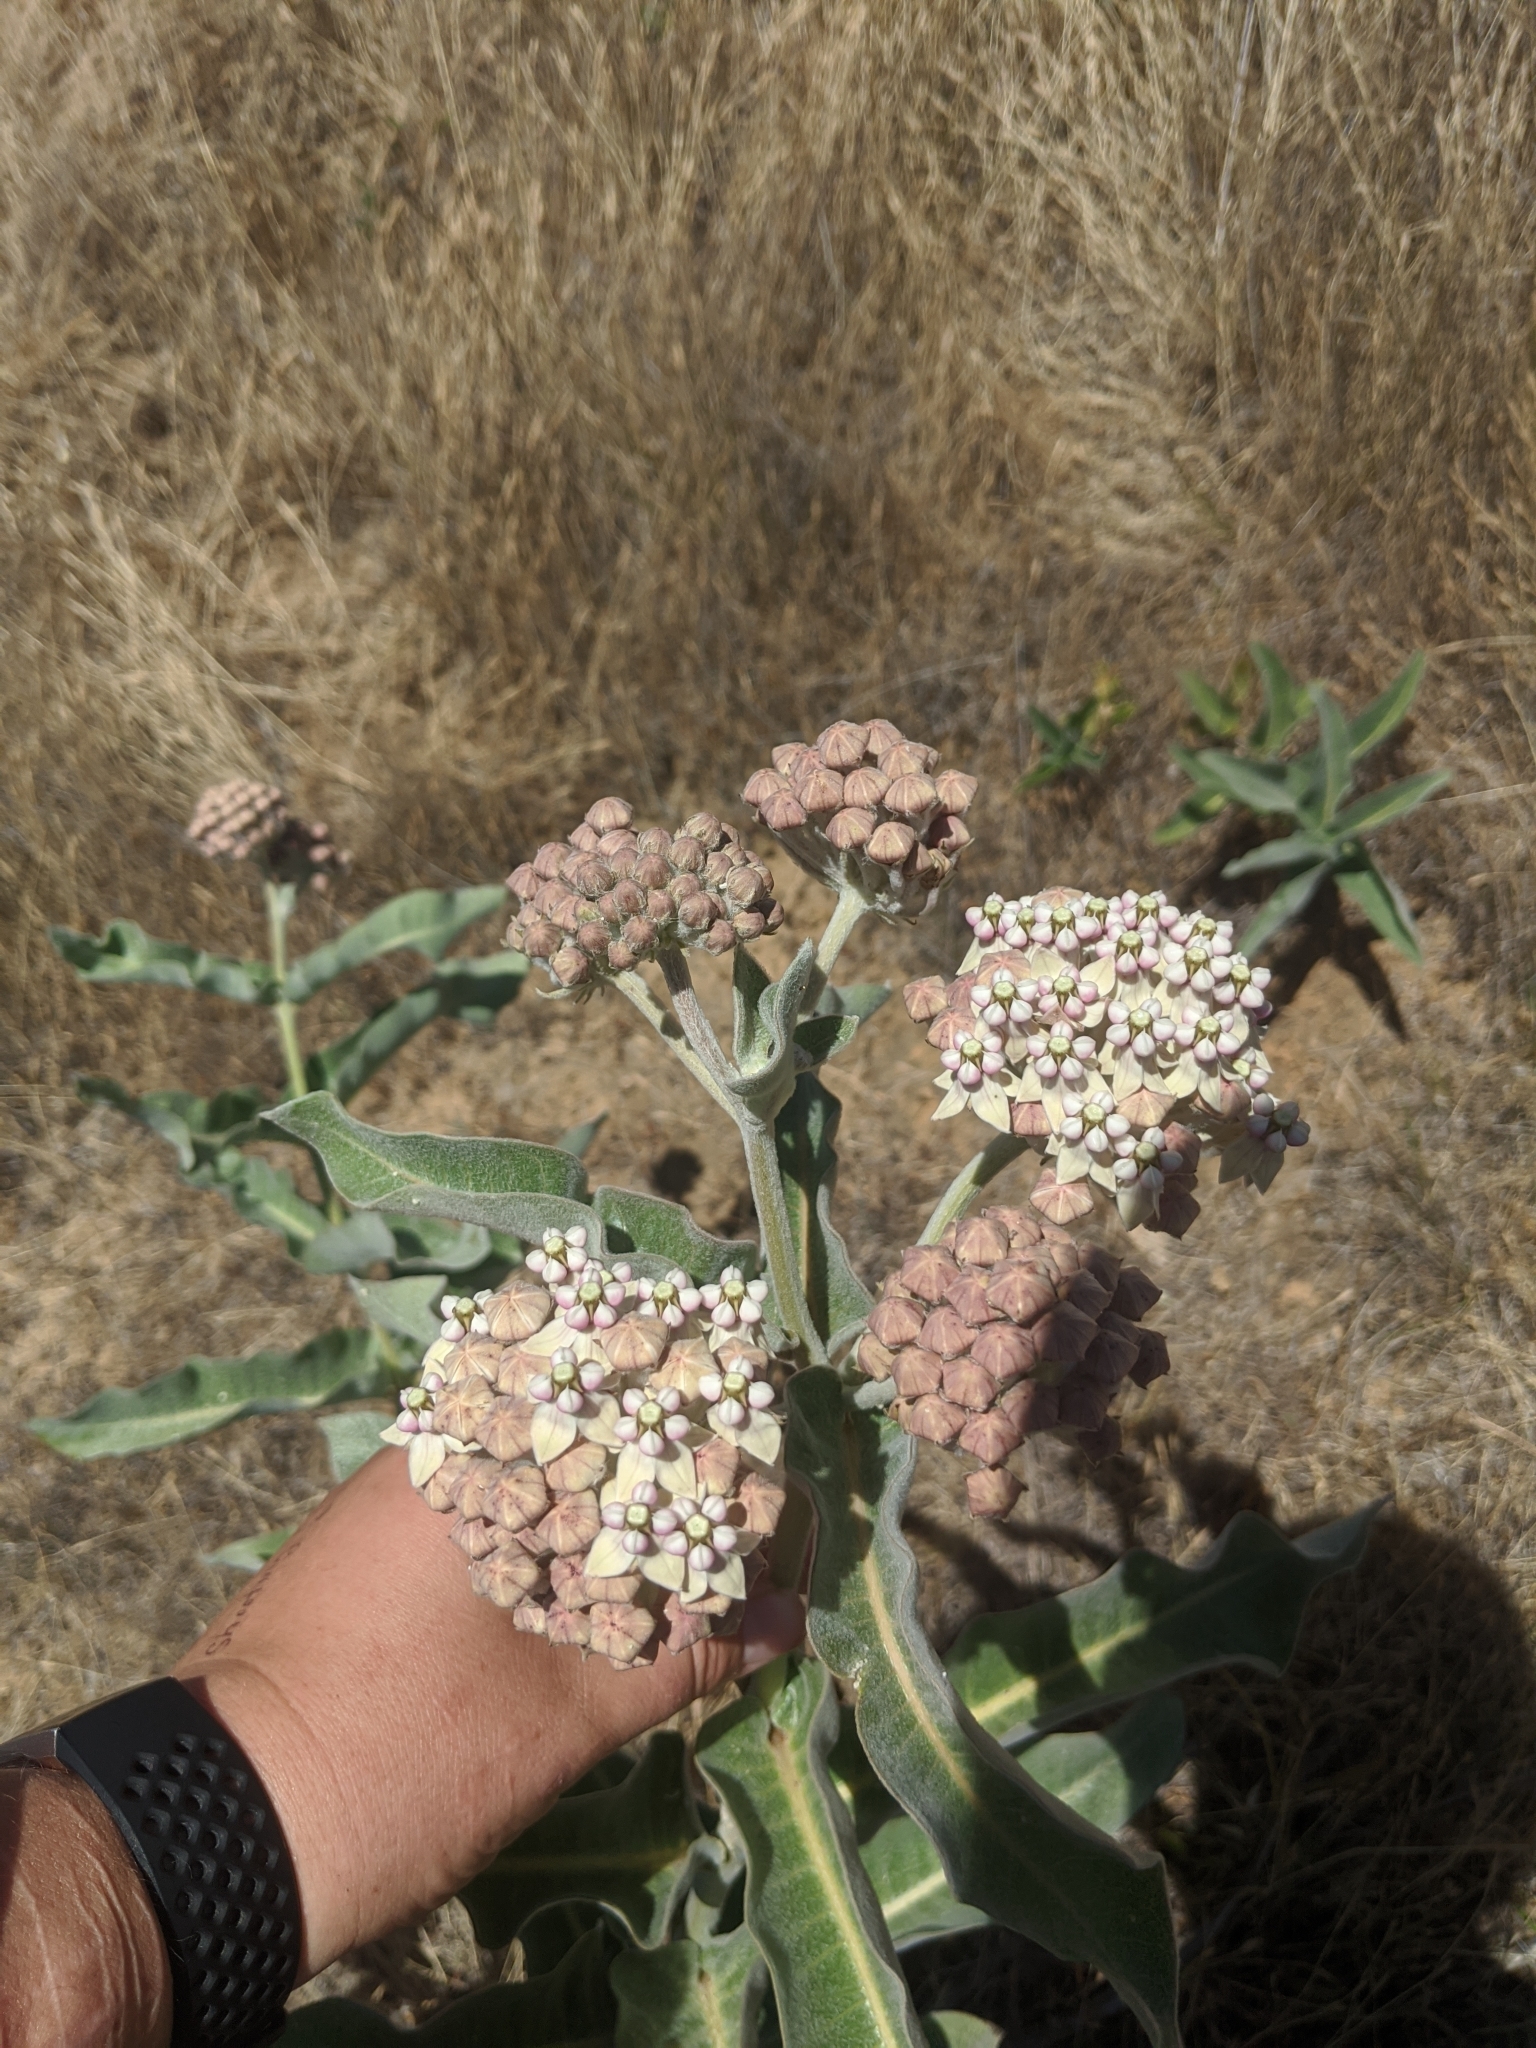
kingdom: Plantae
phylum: Tracheophyta
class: Magnoliopsida
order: Gentianales
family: Apocynaceae
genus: Asclepias
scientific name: Asclepias eriocarpa
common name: Indian milkweed
